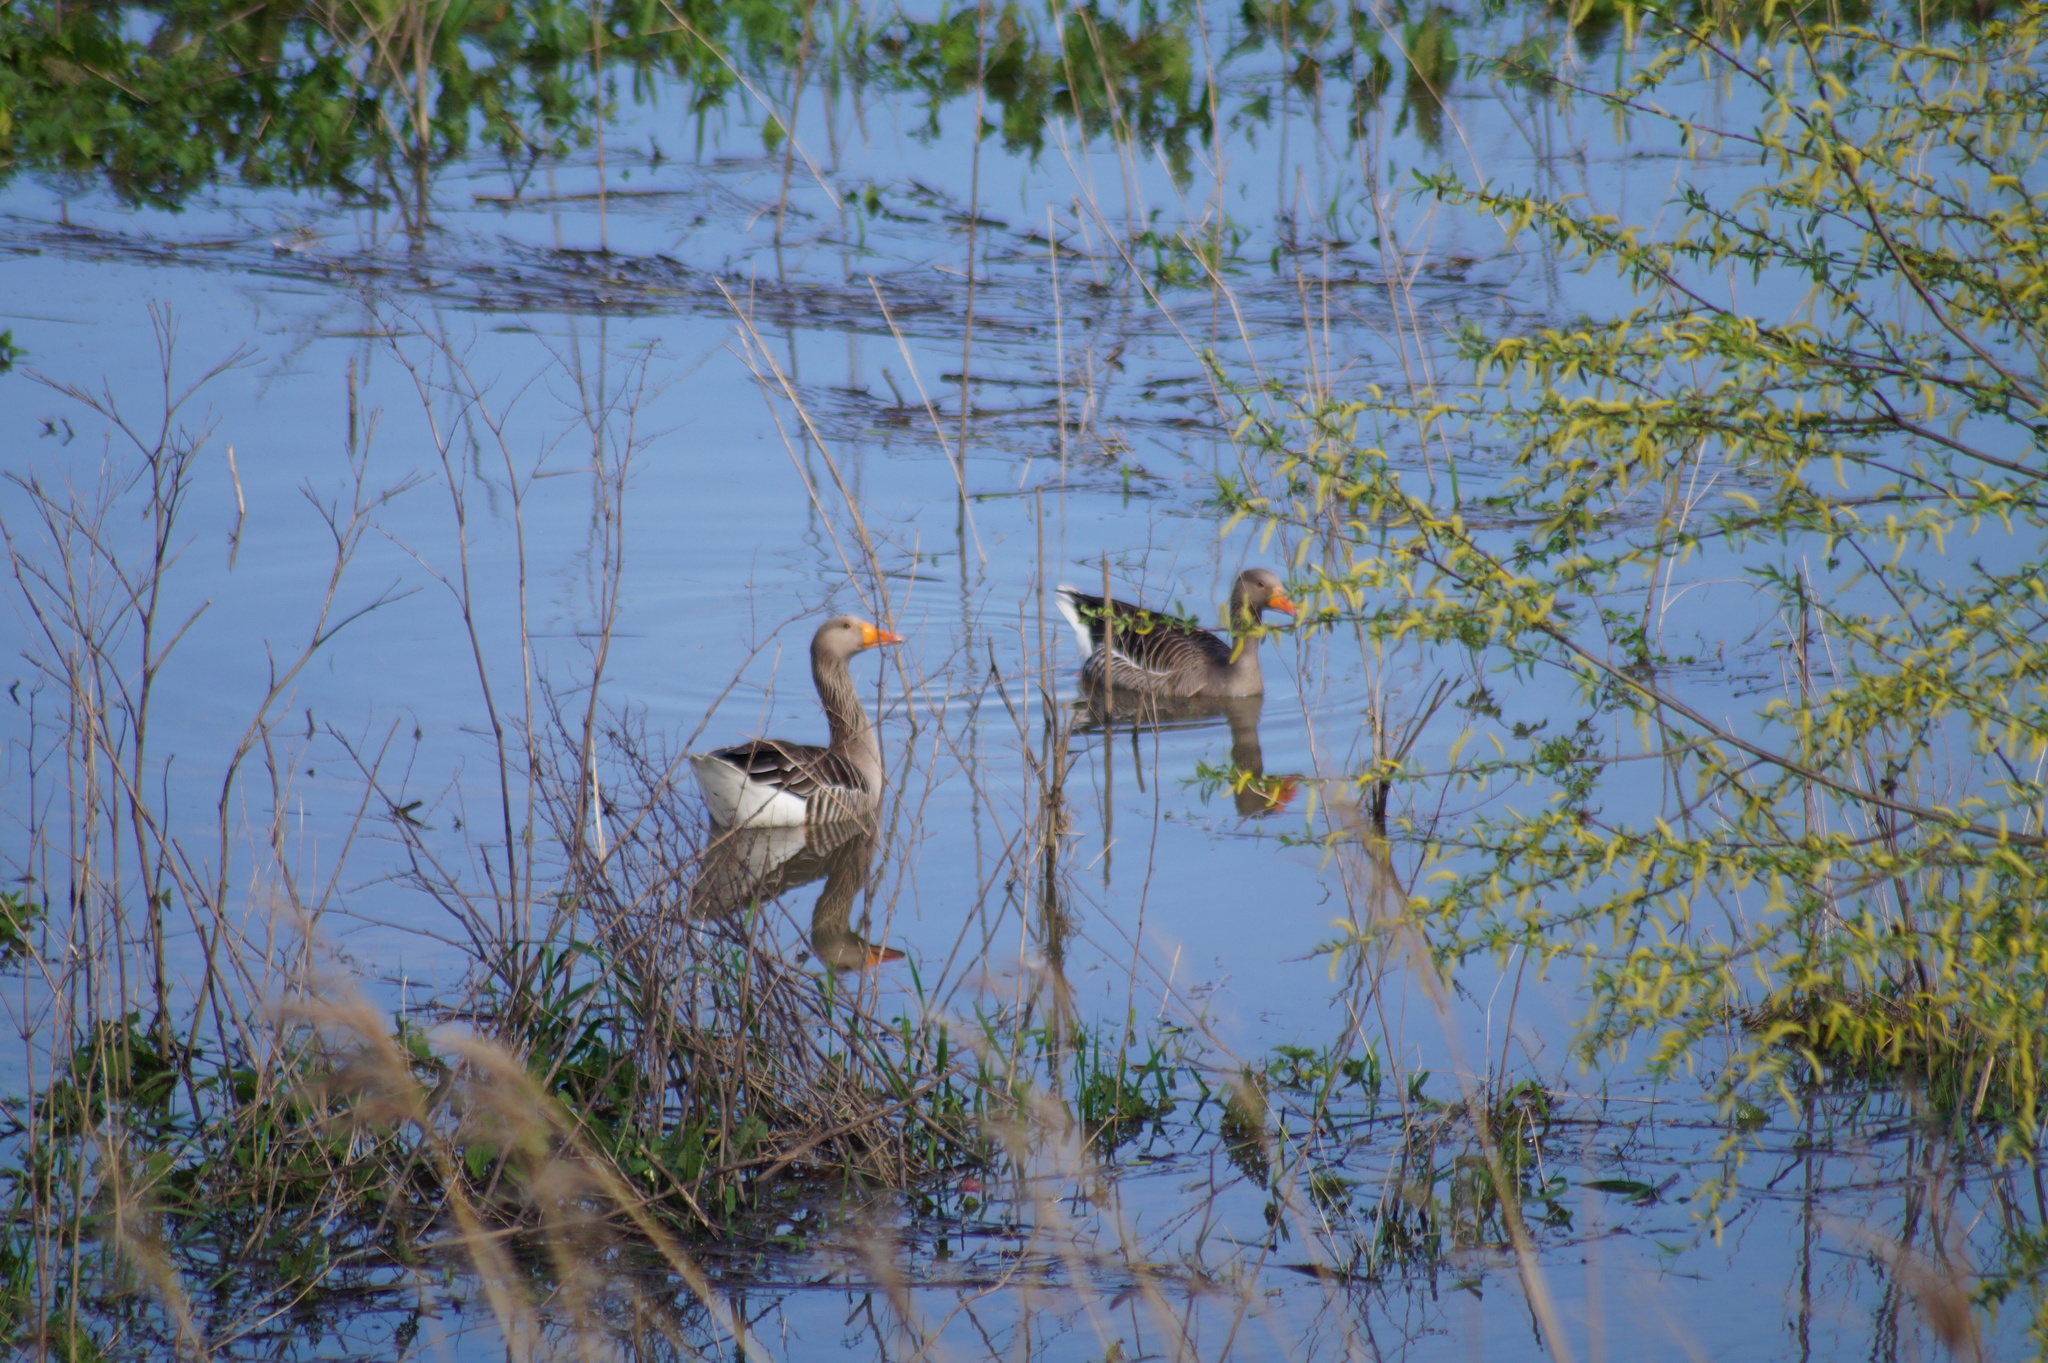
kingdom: Animalia
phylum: Chordata
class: Aves
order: Anseriformes
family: Anatidae
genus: Anser
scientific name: Anser anser
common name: Greylag goose
